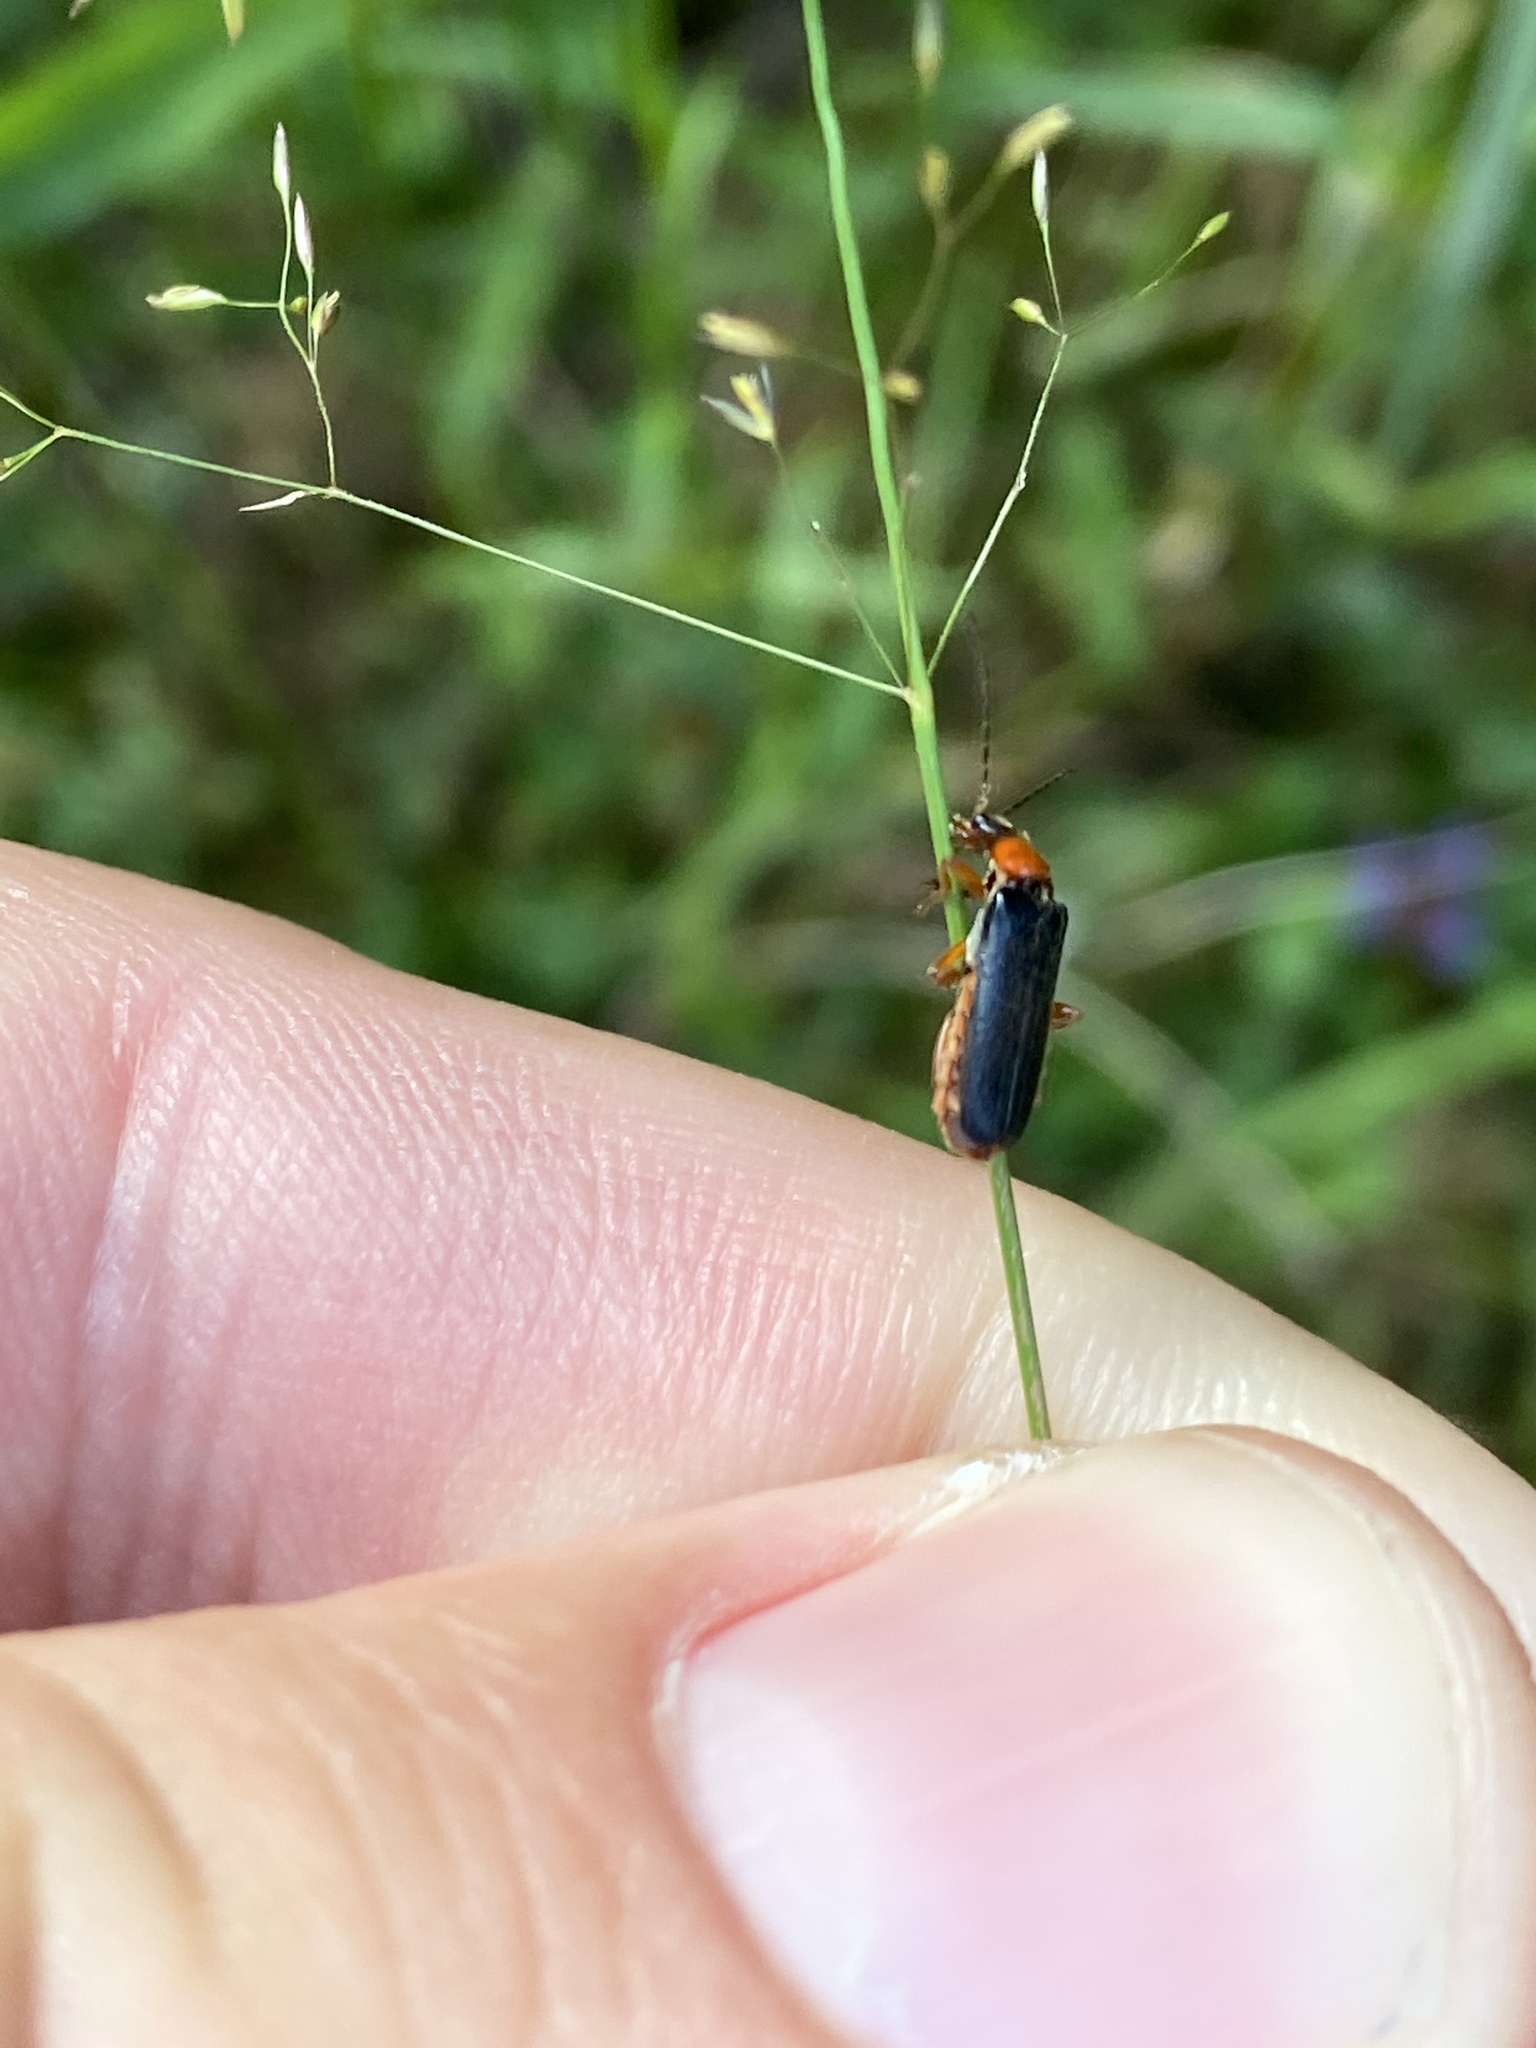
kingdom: Animalia
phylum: Arthropoda
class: Insecta
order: Coleoptera
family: Cantharidae
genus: Cantharis
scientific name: Cantharis flavilabris
